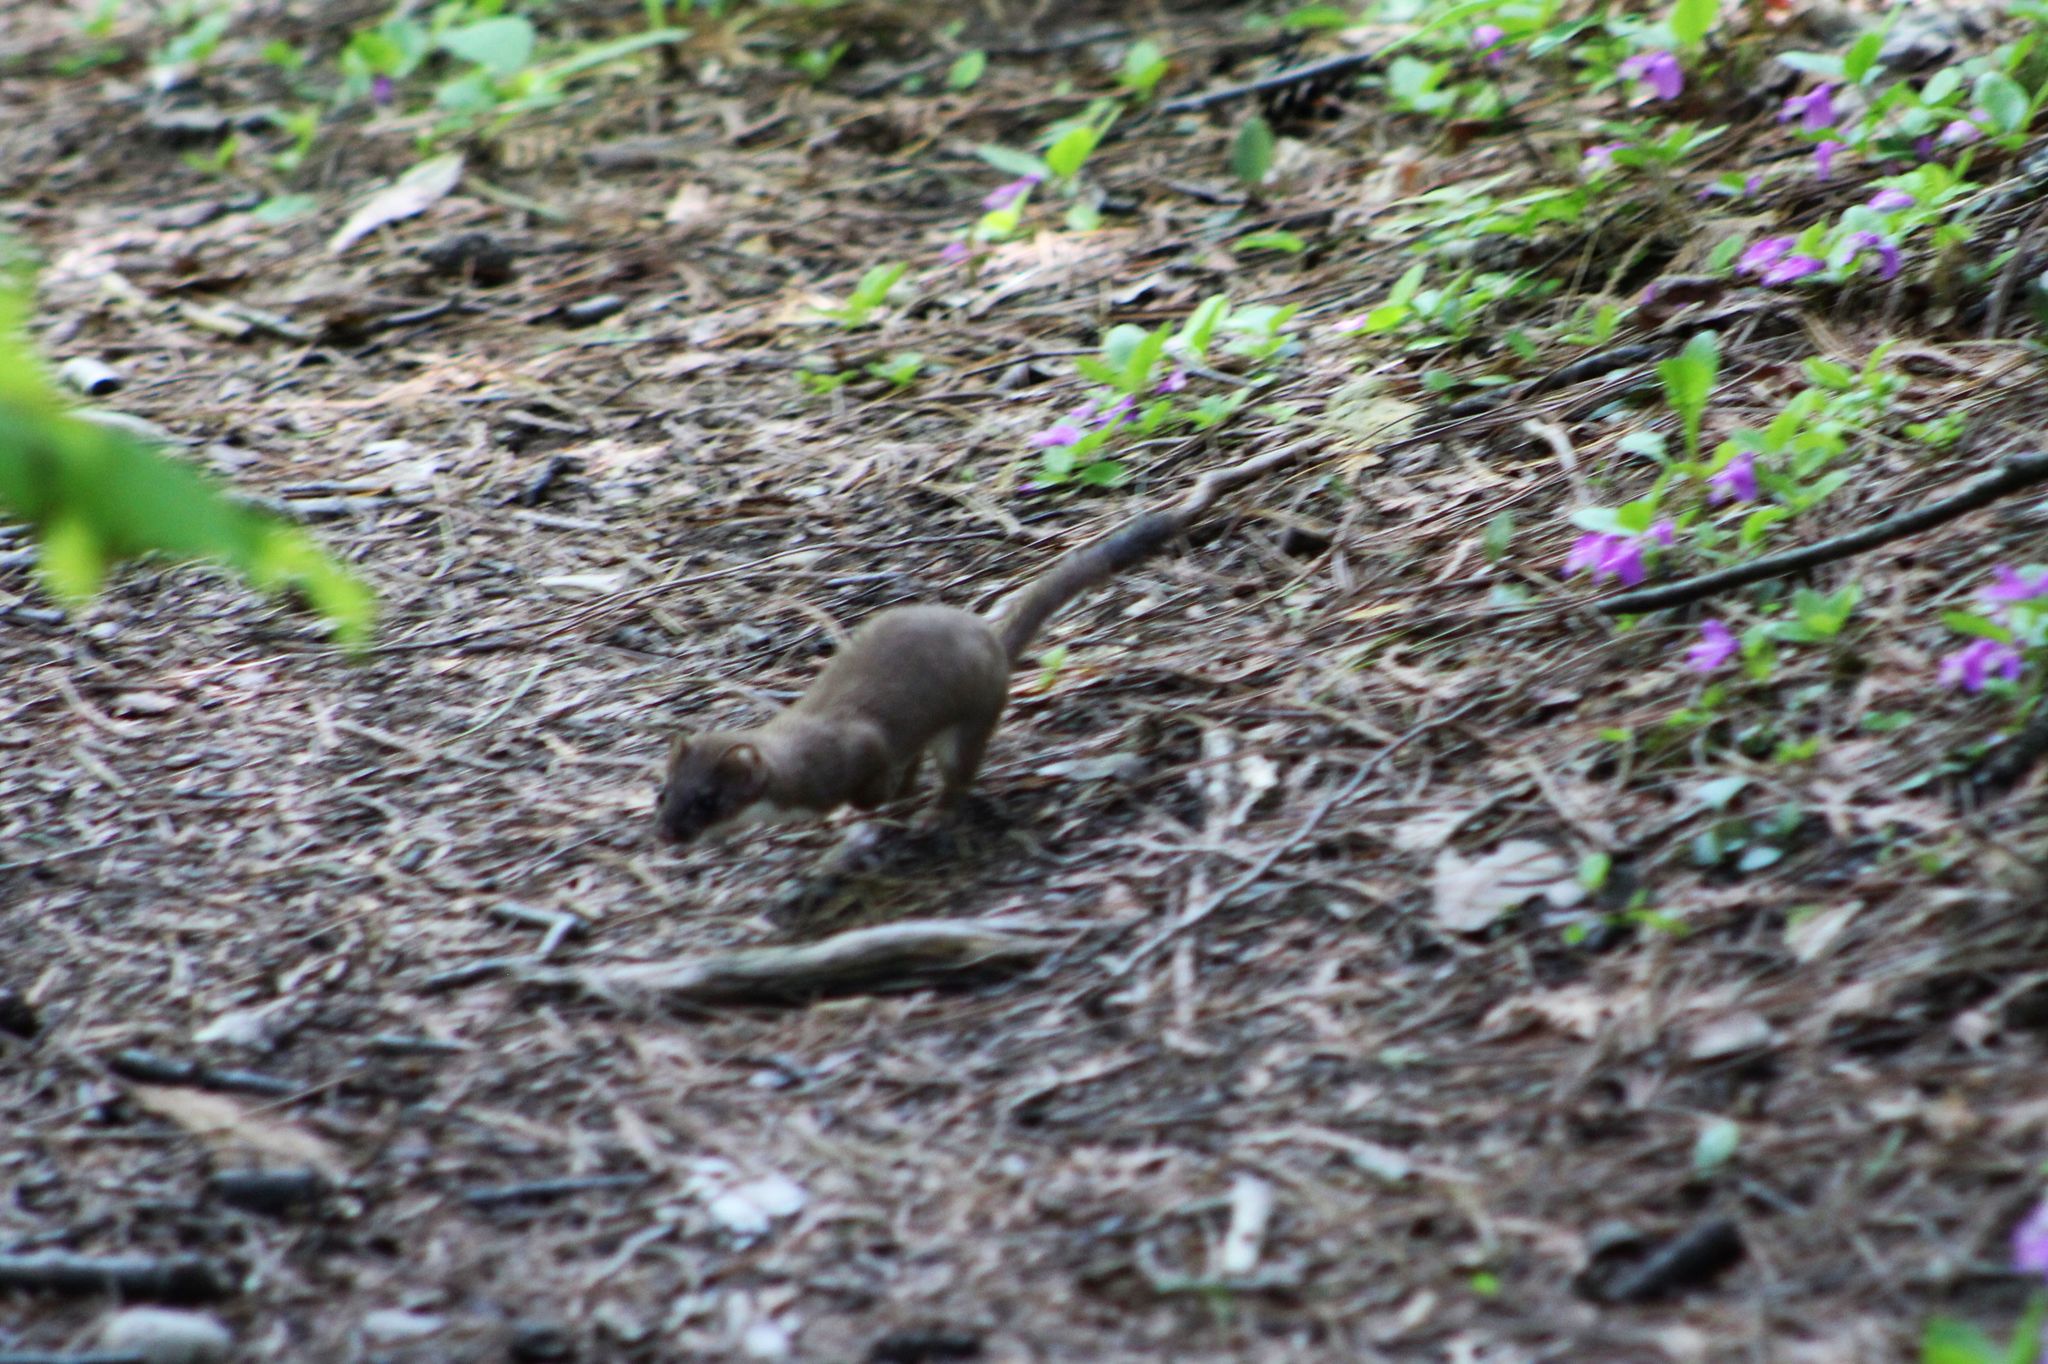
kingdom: Animalia
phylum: Chordata
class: Mammalia
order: Carnivora
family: Mustelidae
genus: Mustela
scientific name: Mustela erminea
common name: Stoat
